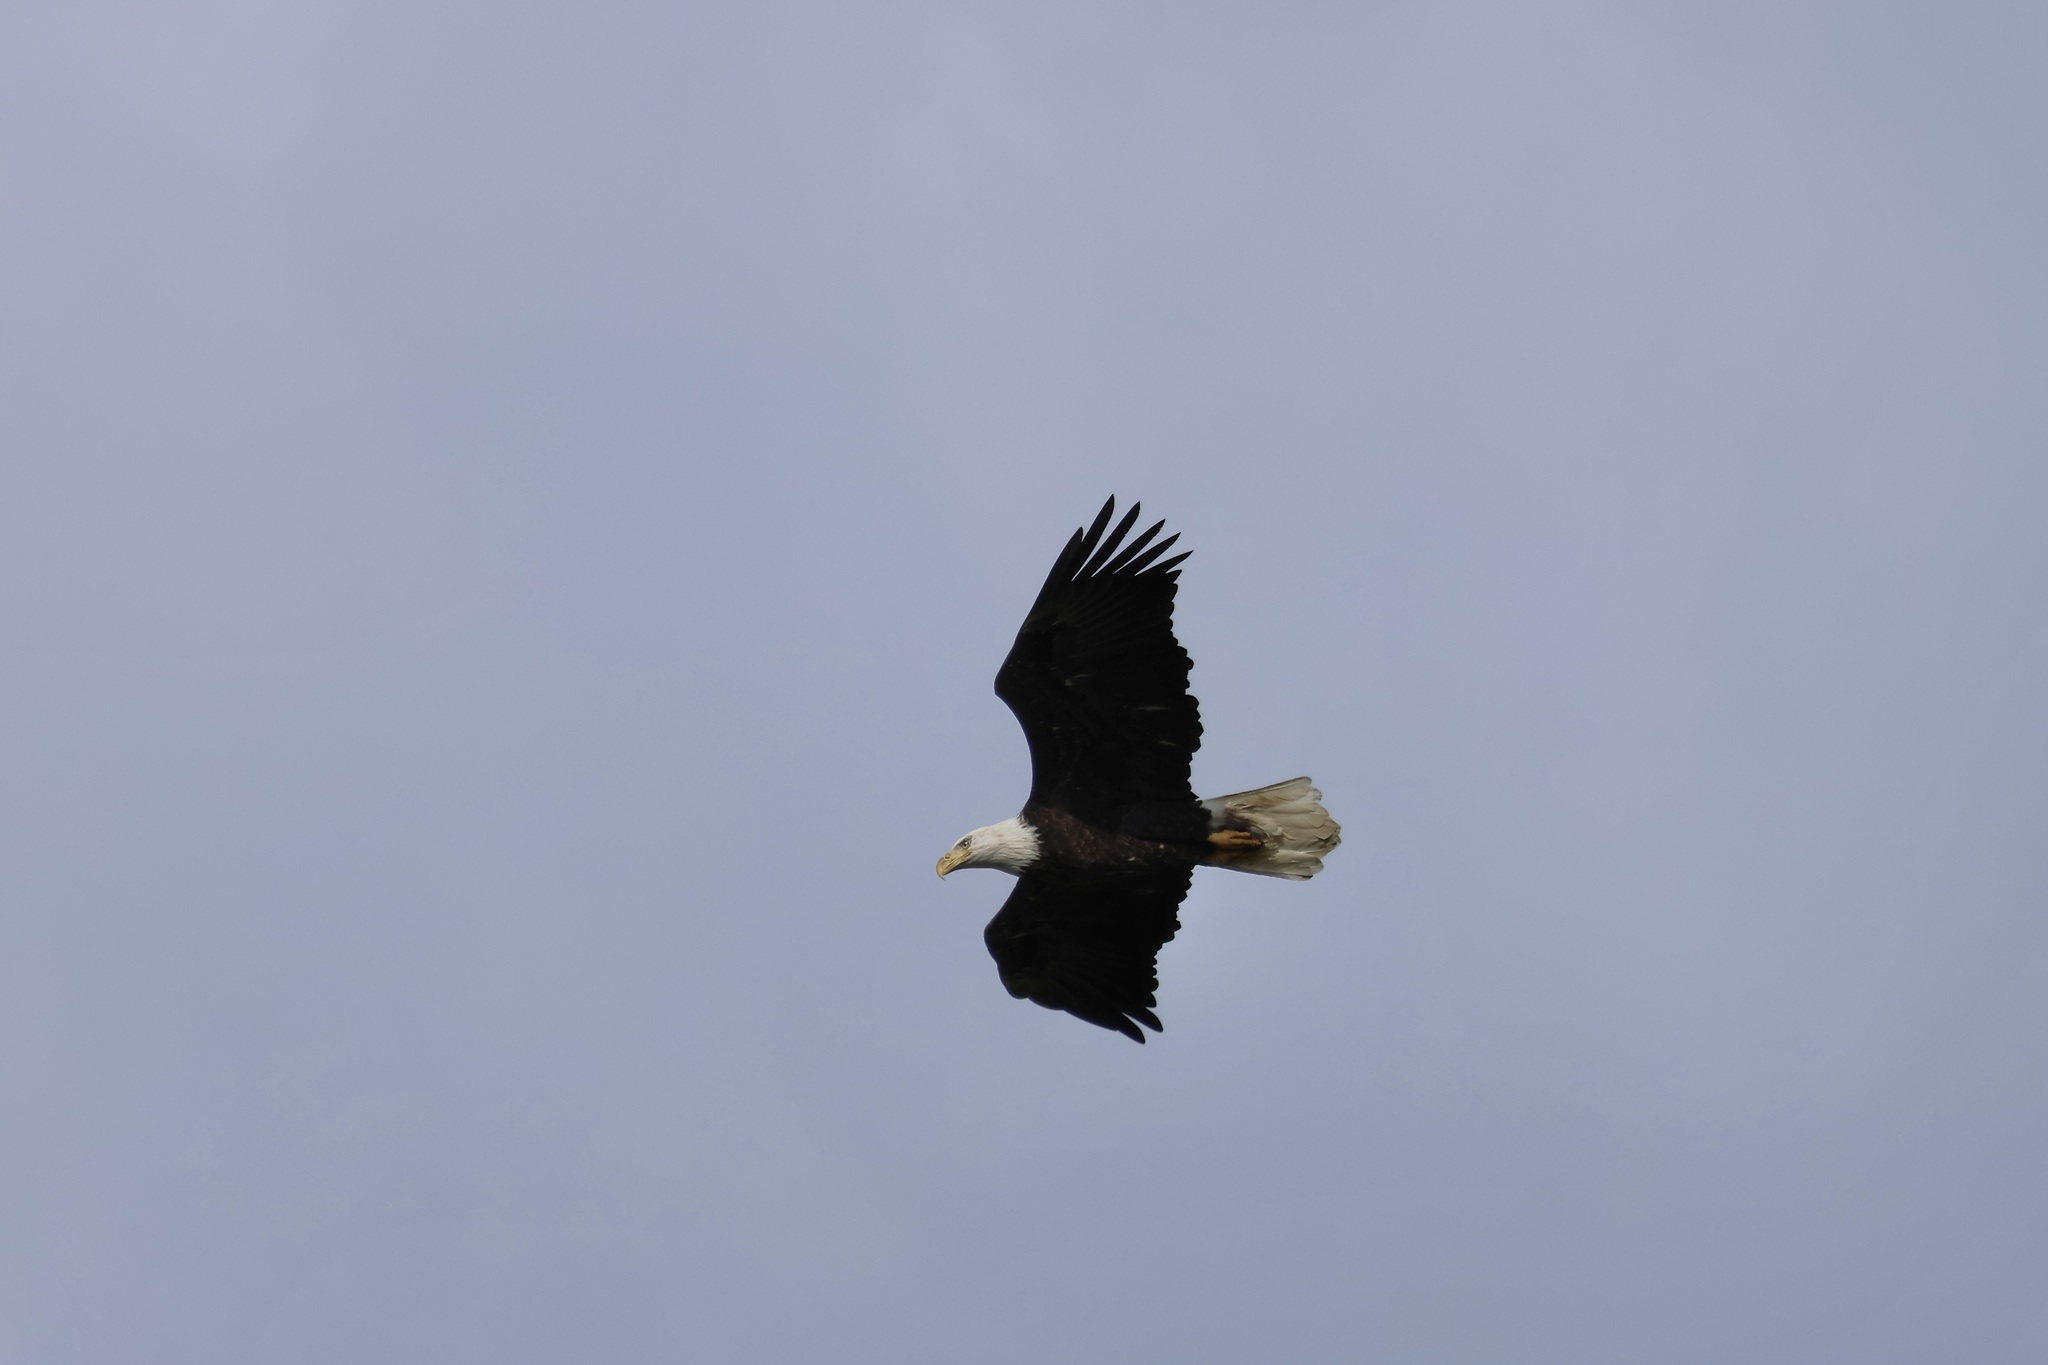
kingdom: Animalia
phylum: Chordata
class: Aves
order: Accipitriformes
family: Accipitridae
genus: Haliaeetus
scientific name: Haliaeetus leucocephalus
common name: Bald eagle
